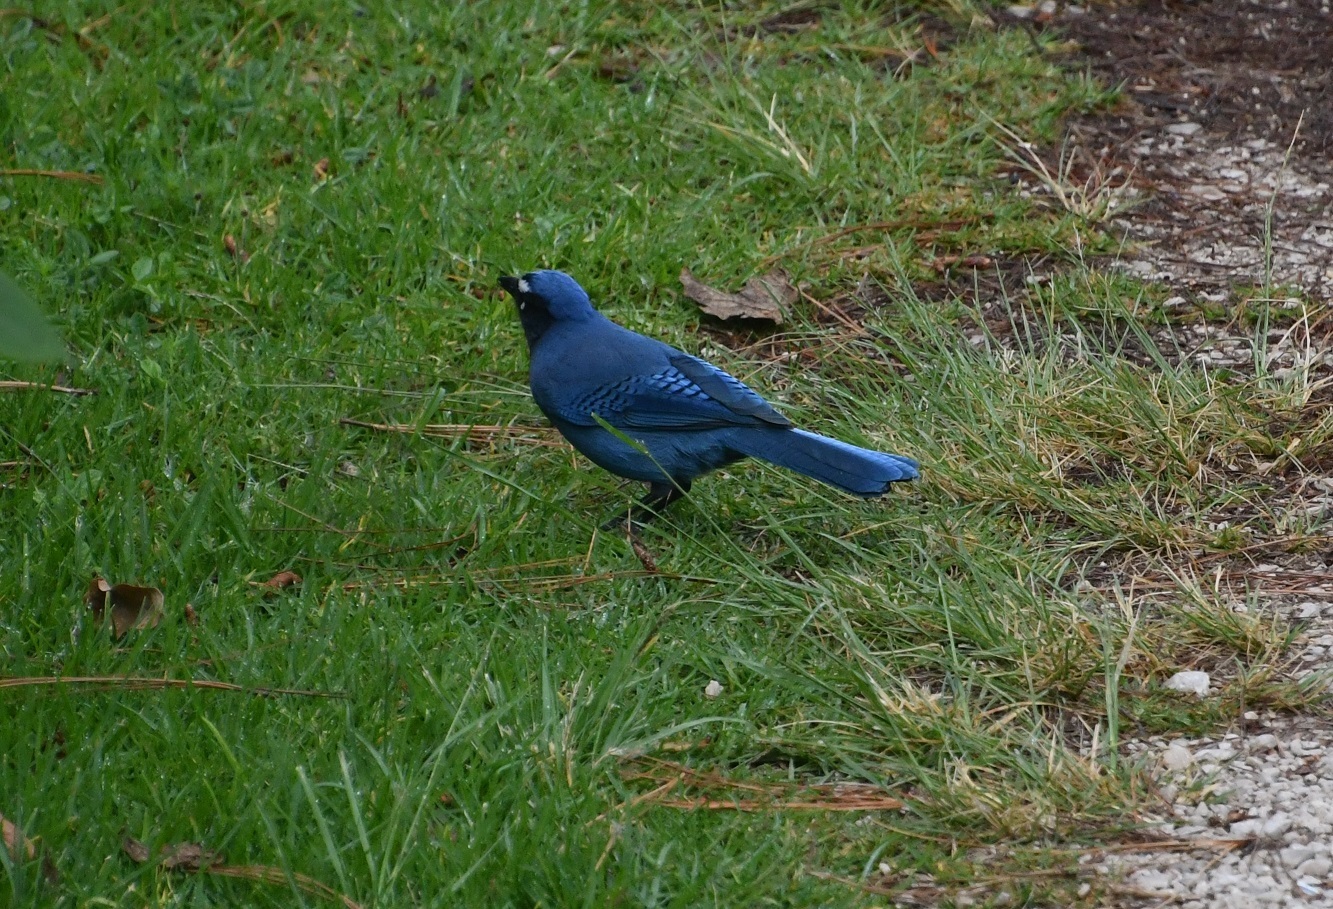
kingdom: Animalia
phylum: Chordata
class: Aves
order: Passeriformes
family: Corvidae
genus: Cyanocitta
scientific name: Cyanocitta stelleri
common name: Steller's jay
